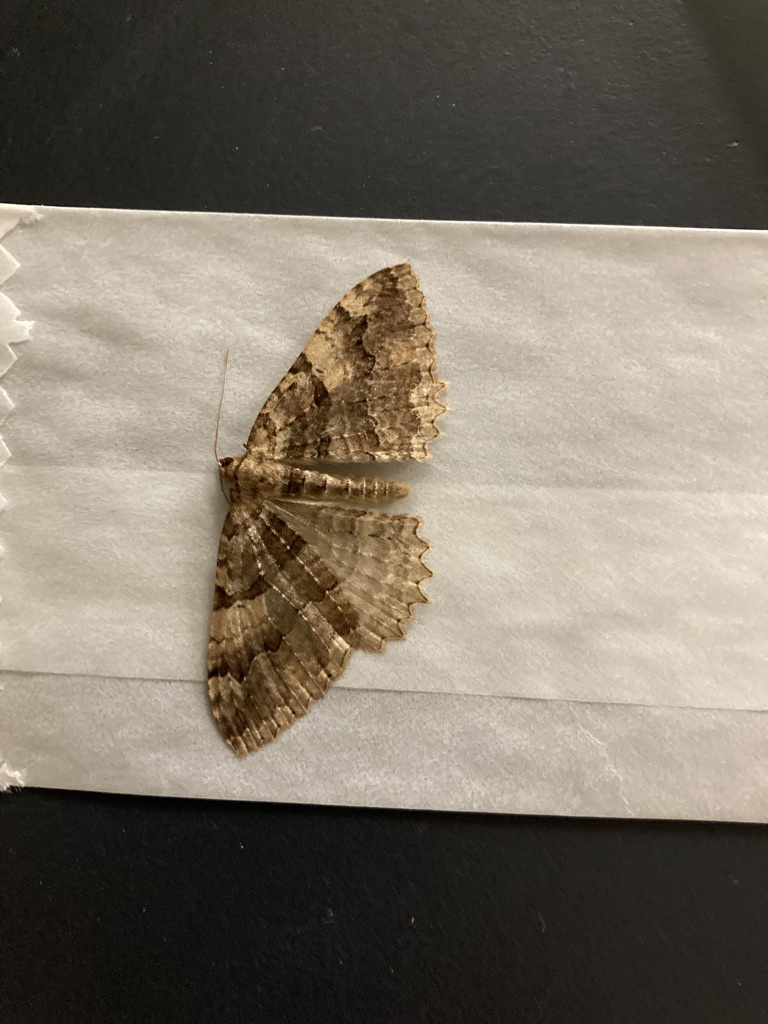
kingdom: Animalia
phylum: Arthropoda
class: Insecta
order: Lepidoptera
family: Geometridae
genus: Triphosa
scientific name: Triphosa haesitata
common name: Tissue moth
